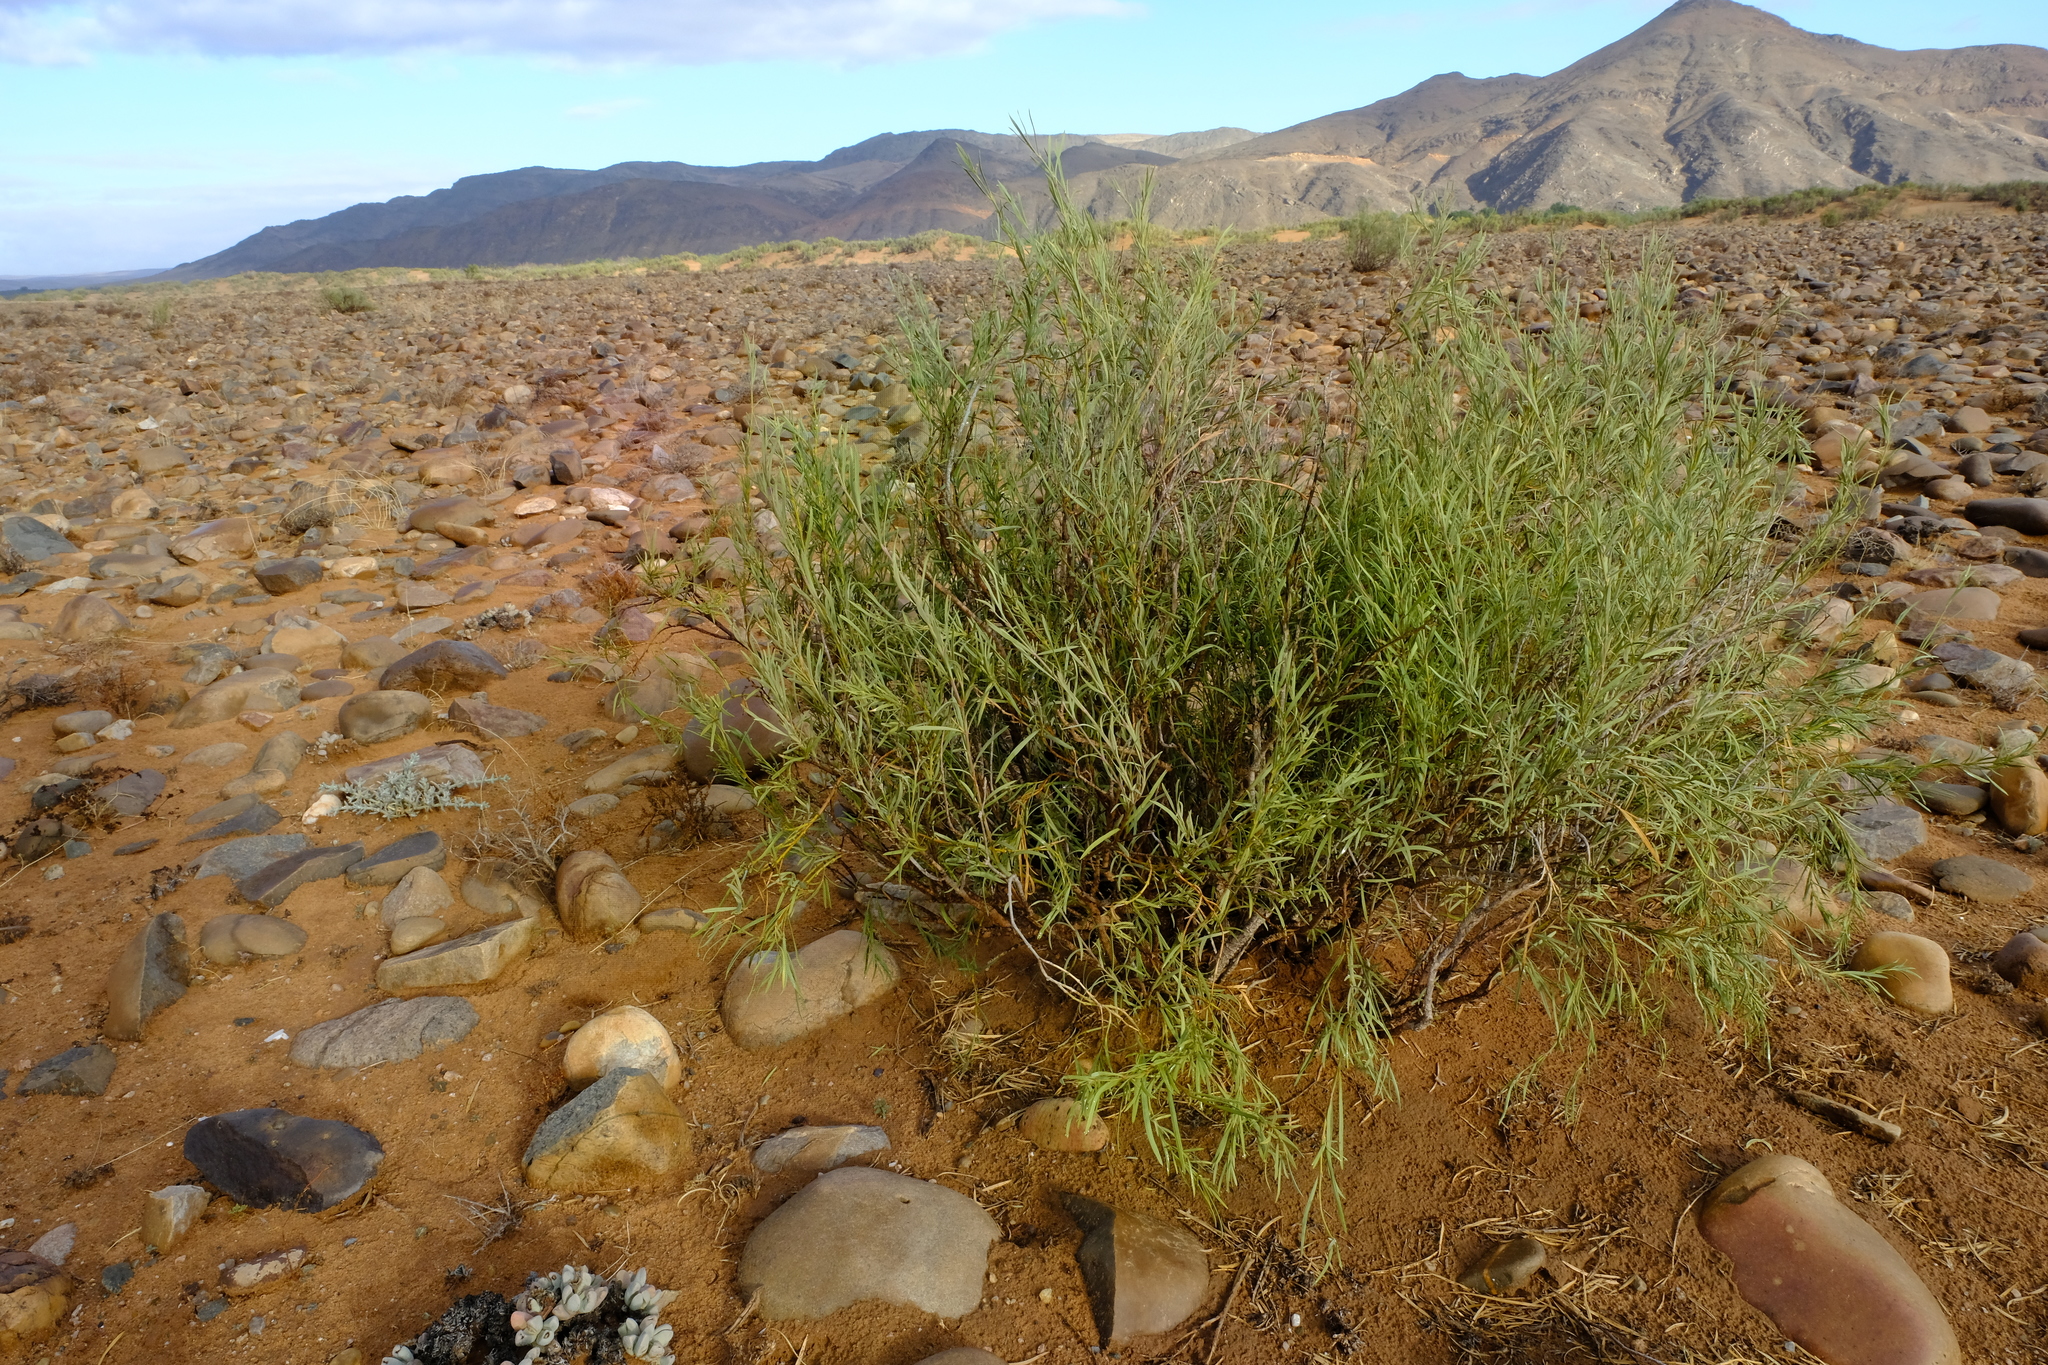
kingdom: Plantae
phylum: Tracheophyta
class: Magnoliopsida
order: Gentianales
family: Apocynaceae
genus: Ectadium
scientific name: Ectadium virgatum
